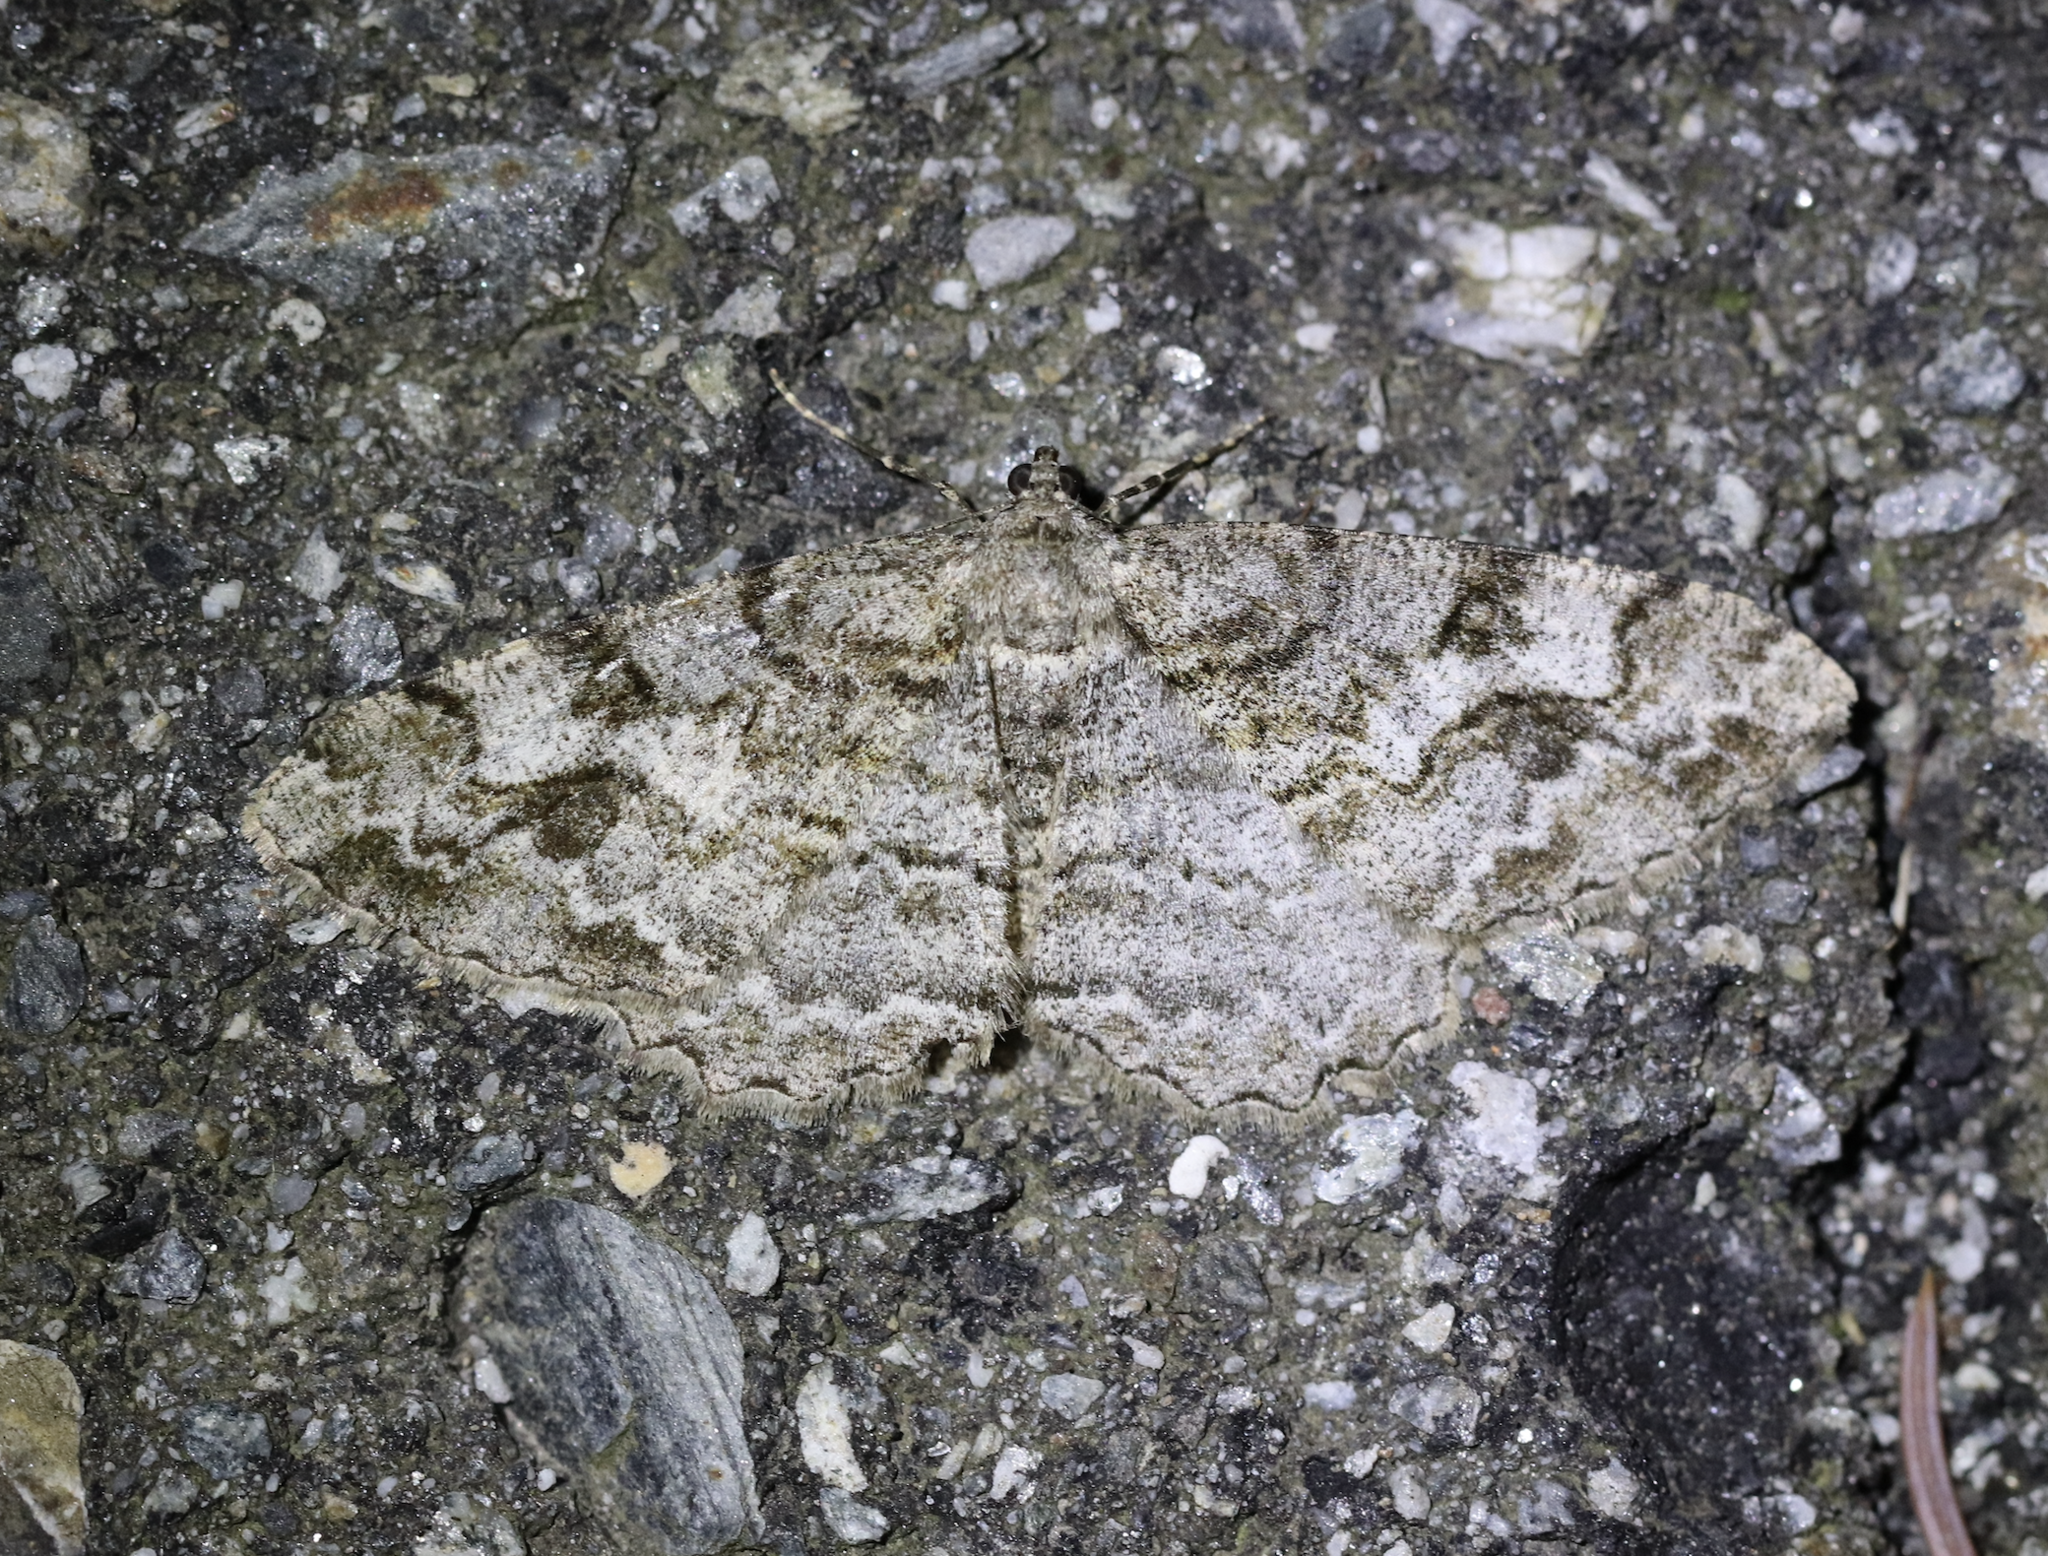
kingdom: Animalia
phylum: Arthropoda
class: Insecta
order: Lepidoptera
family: Geometridae
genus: Alcis
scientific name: Alcis repandata
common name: Mottled beauty
